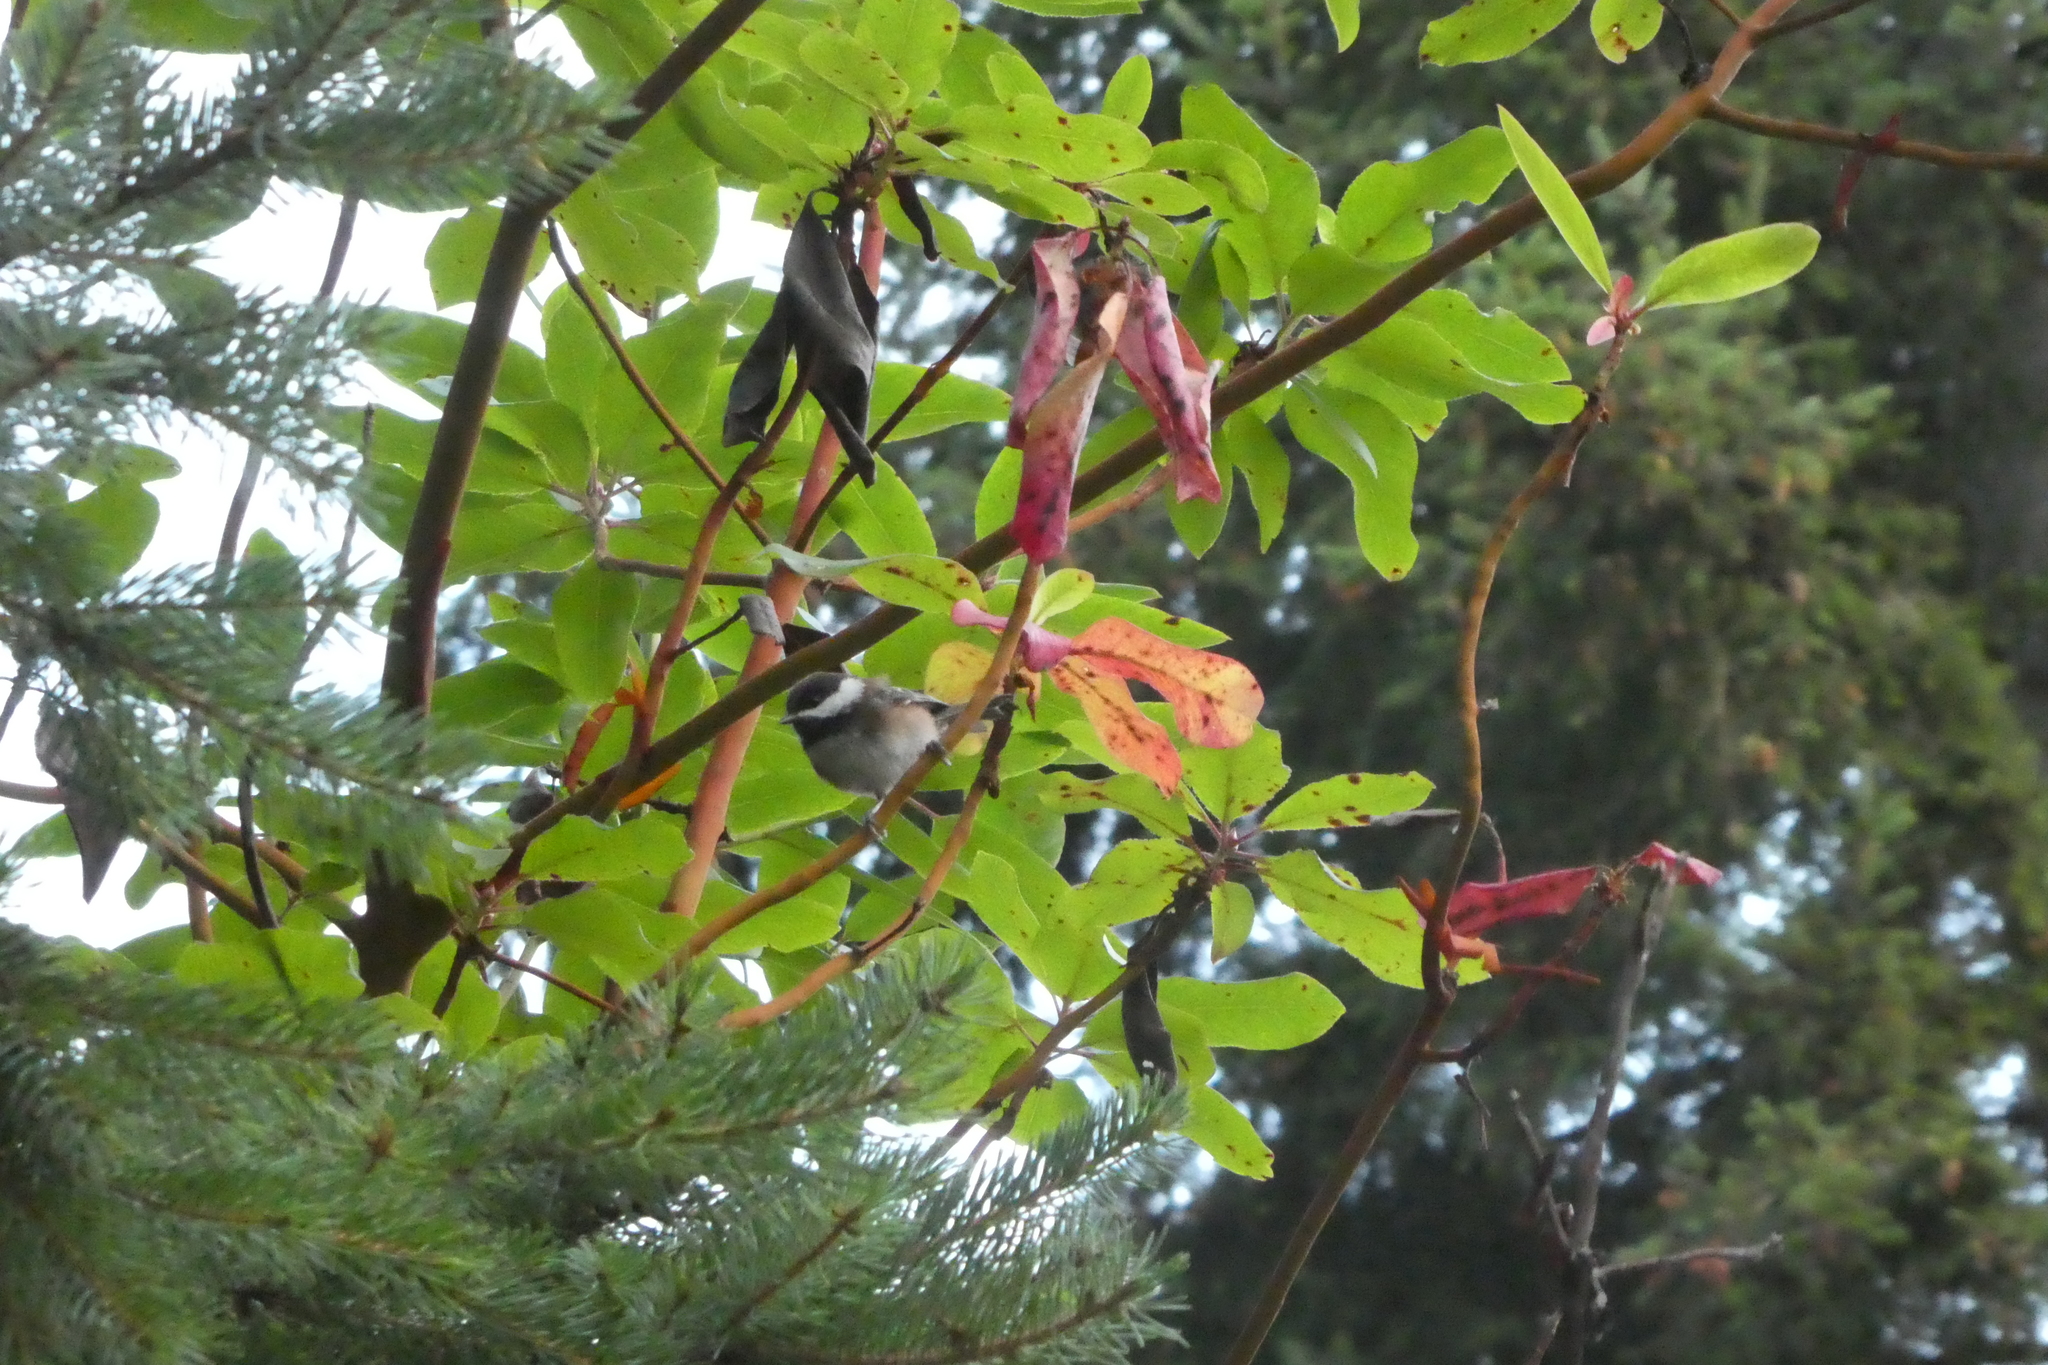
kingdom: Animalia
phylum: Chordata
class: Aves
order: Passeriformes
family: Paridae
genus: Poecile
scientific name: Poecile rufescens
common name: Chestnut-backed chickadee
